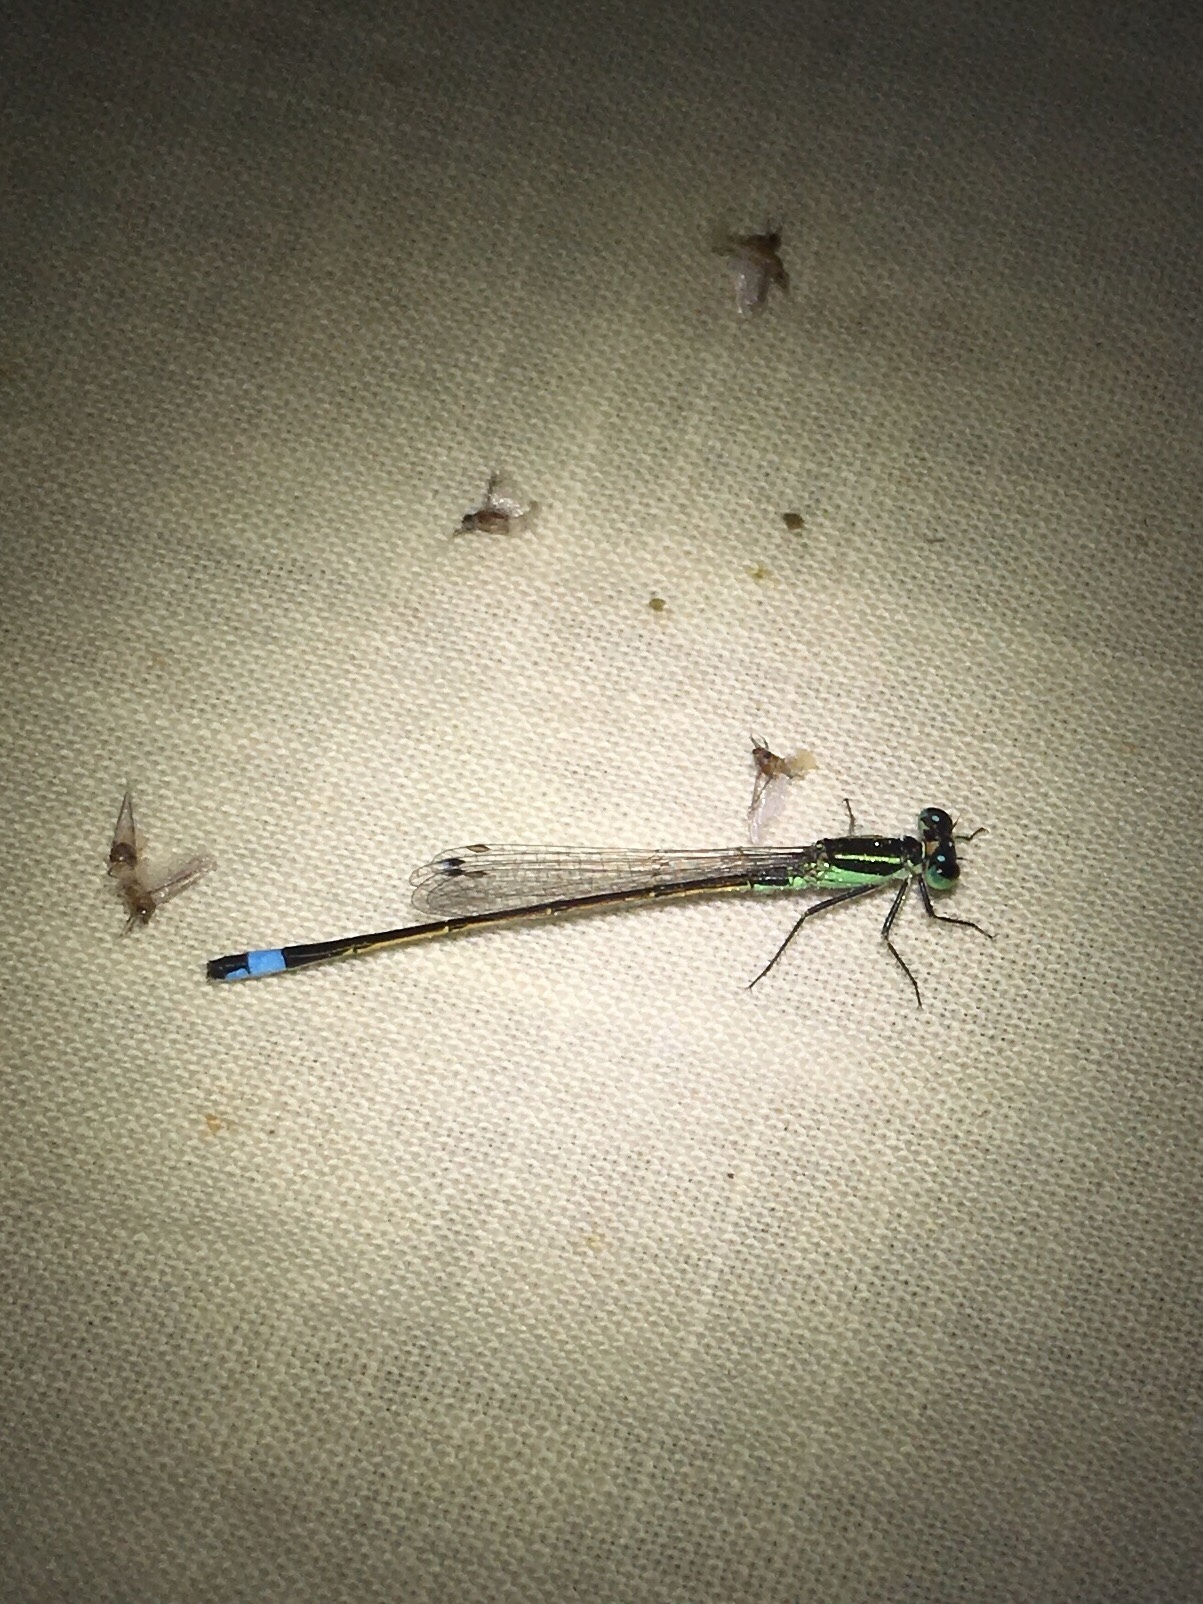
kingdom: Animalia
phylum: Arthropoda
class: Insecta
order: Odonata
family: Coenagrionidae
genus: Ischnura
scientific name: Ischnura ramburii
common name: Rambur's forktail
